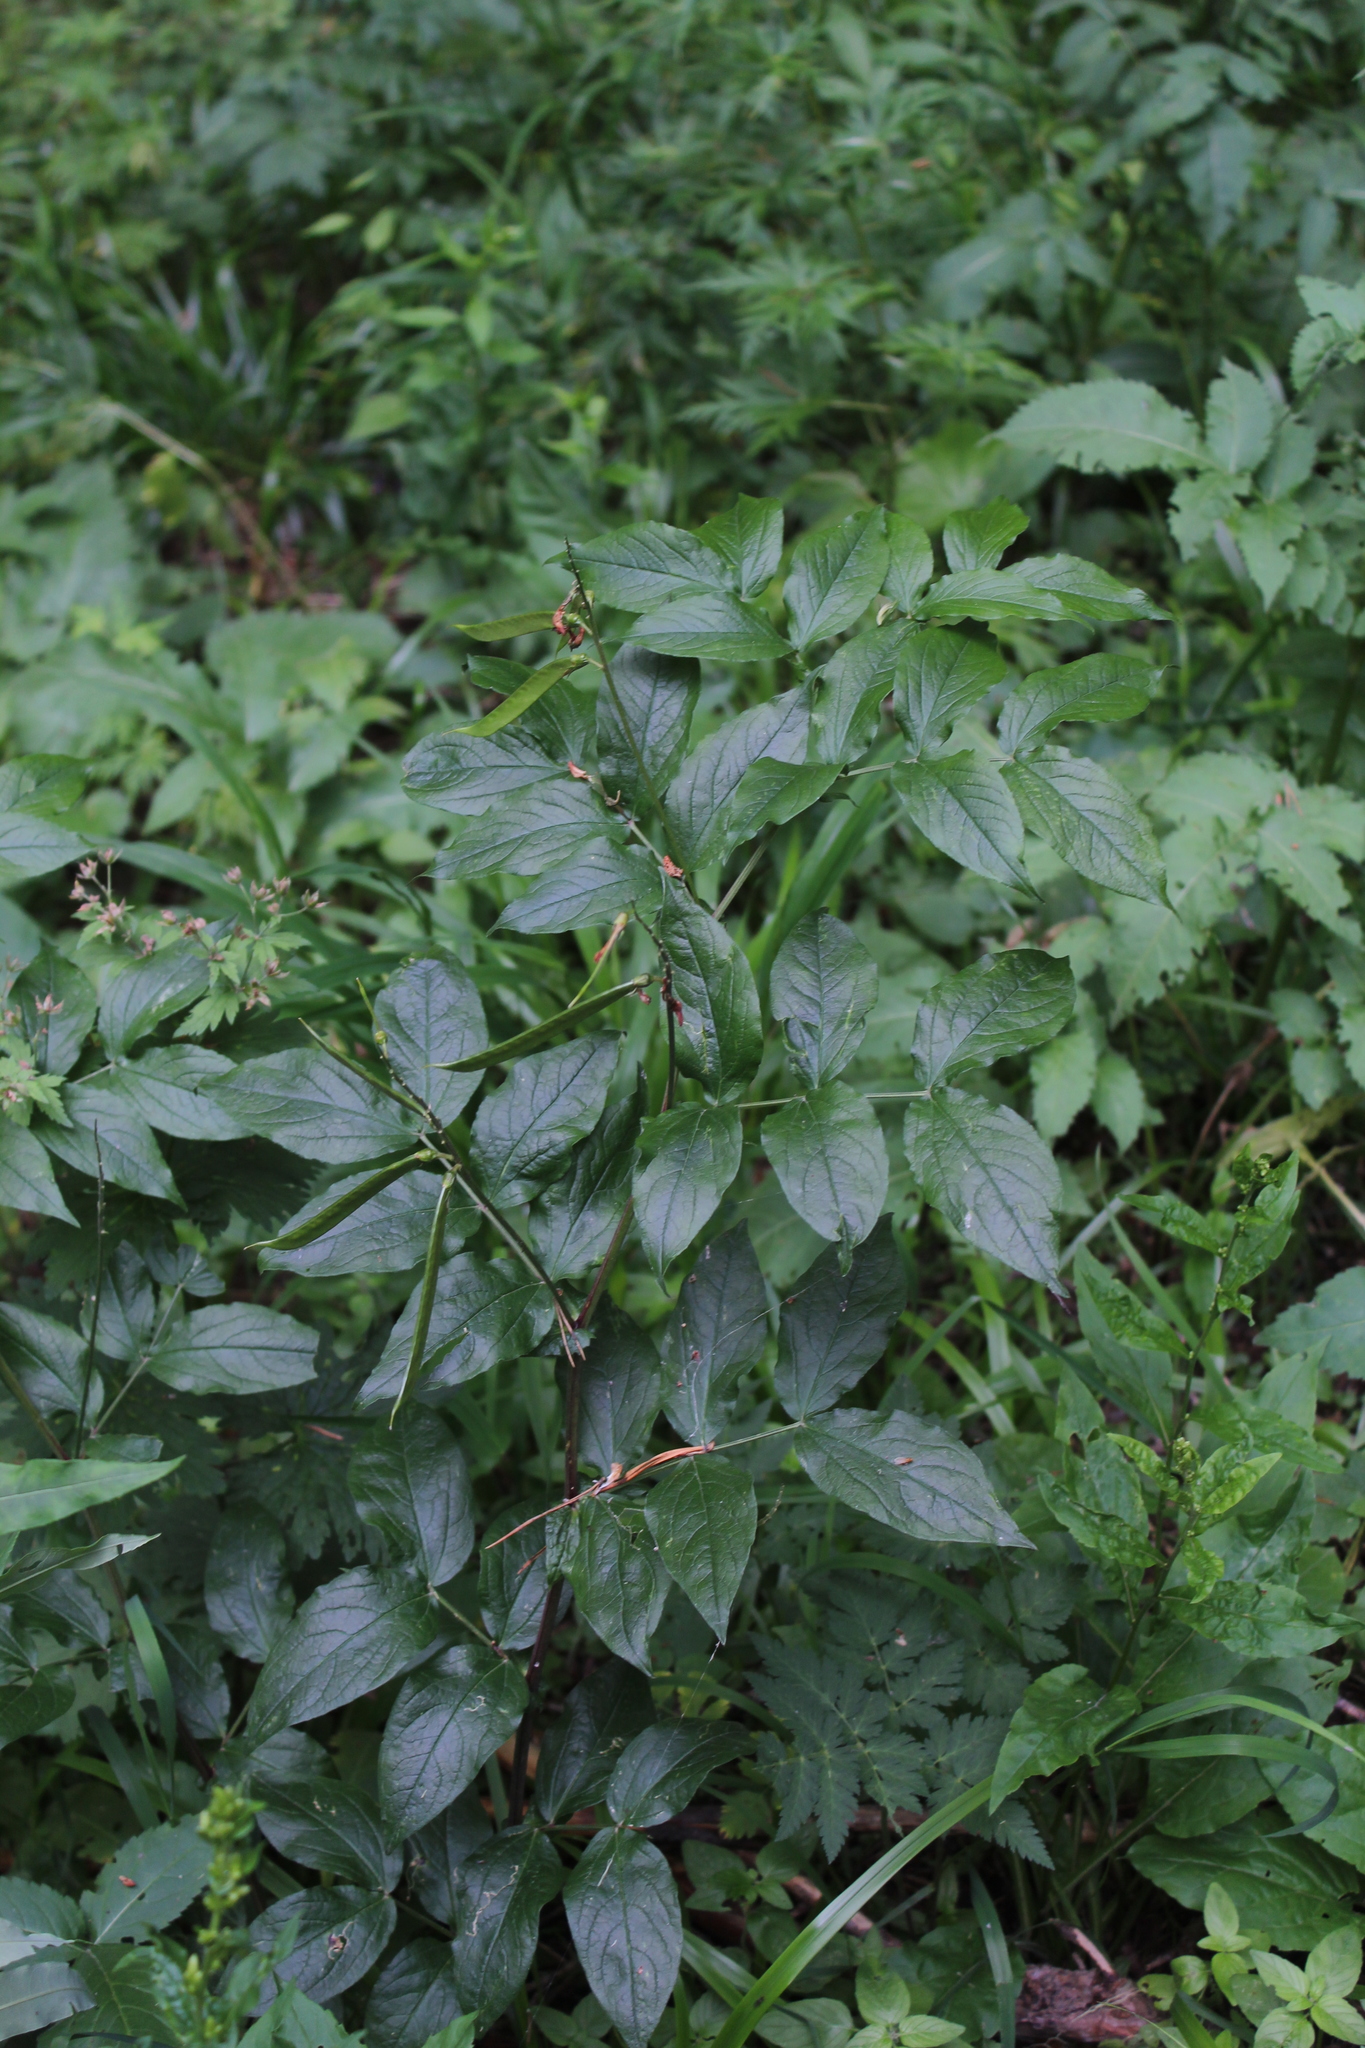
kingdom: Plantae
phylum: Tracheophyta
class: Magnoliopsida
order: Fabales
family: Fabaceae
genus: Lathyrus
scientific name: Lathyrus aureus
